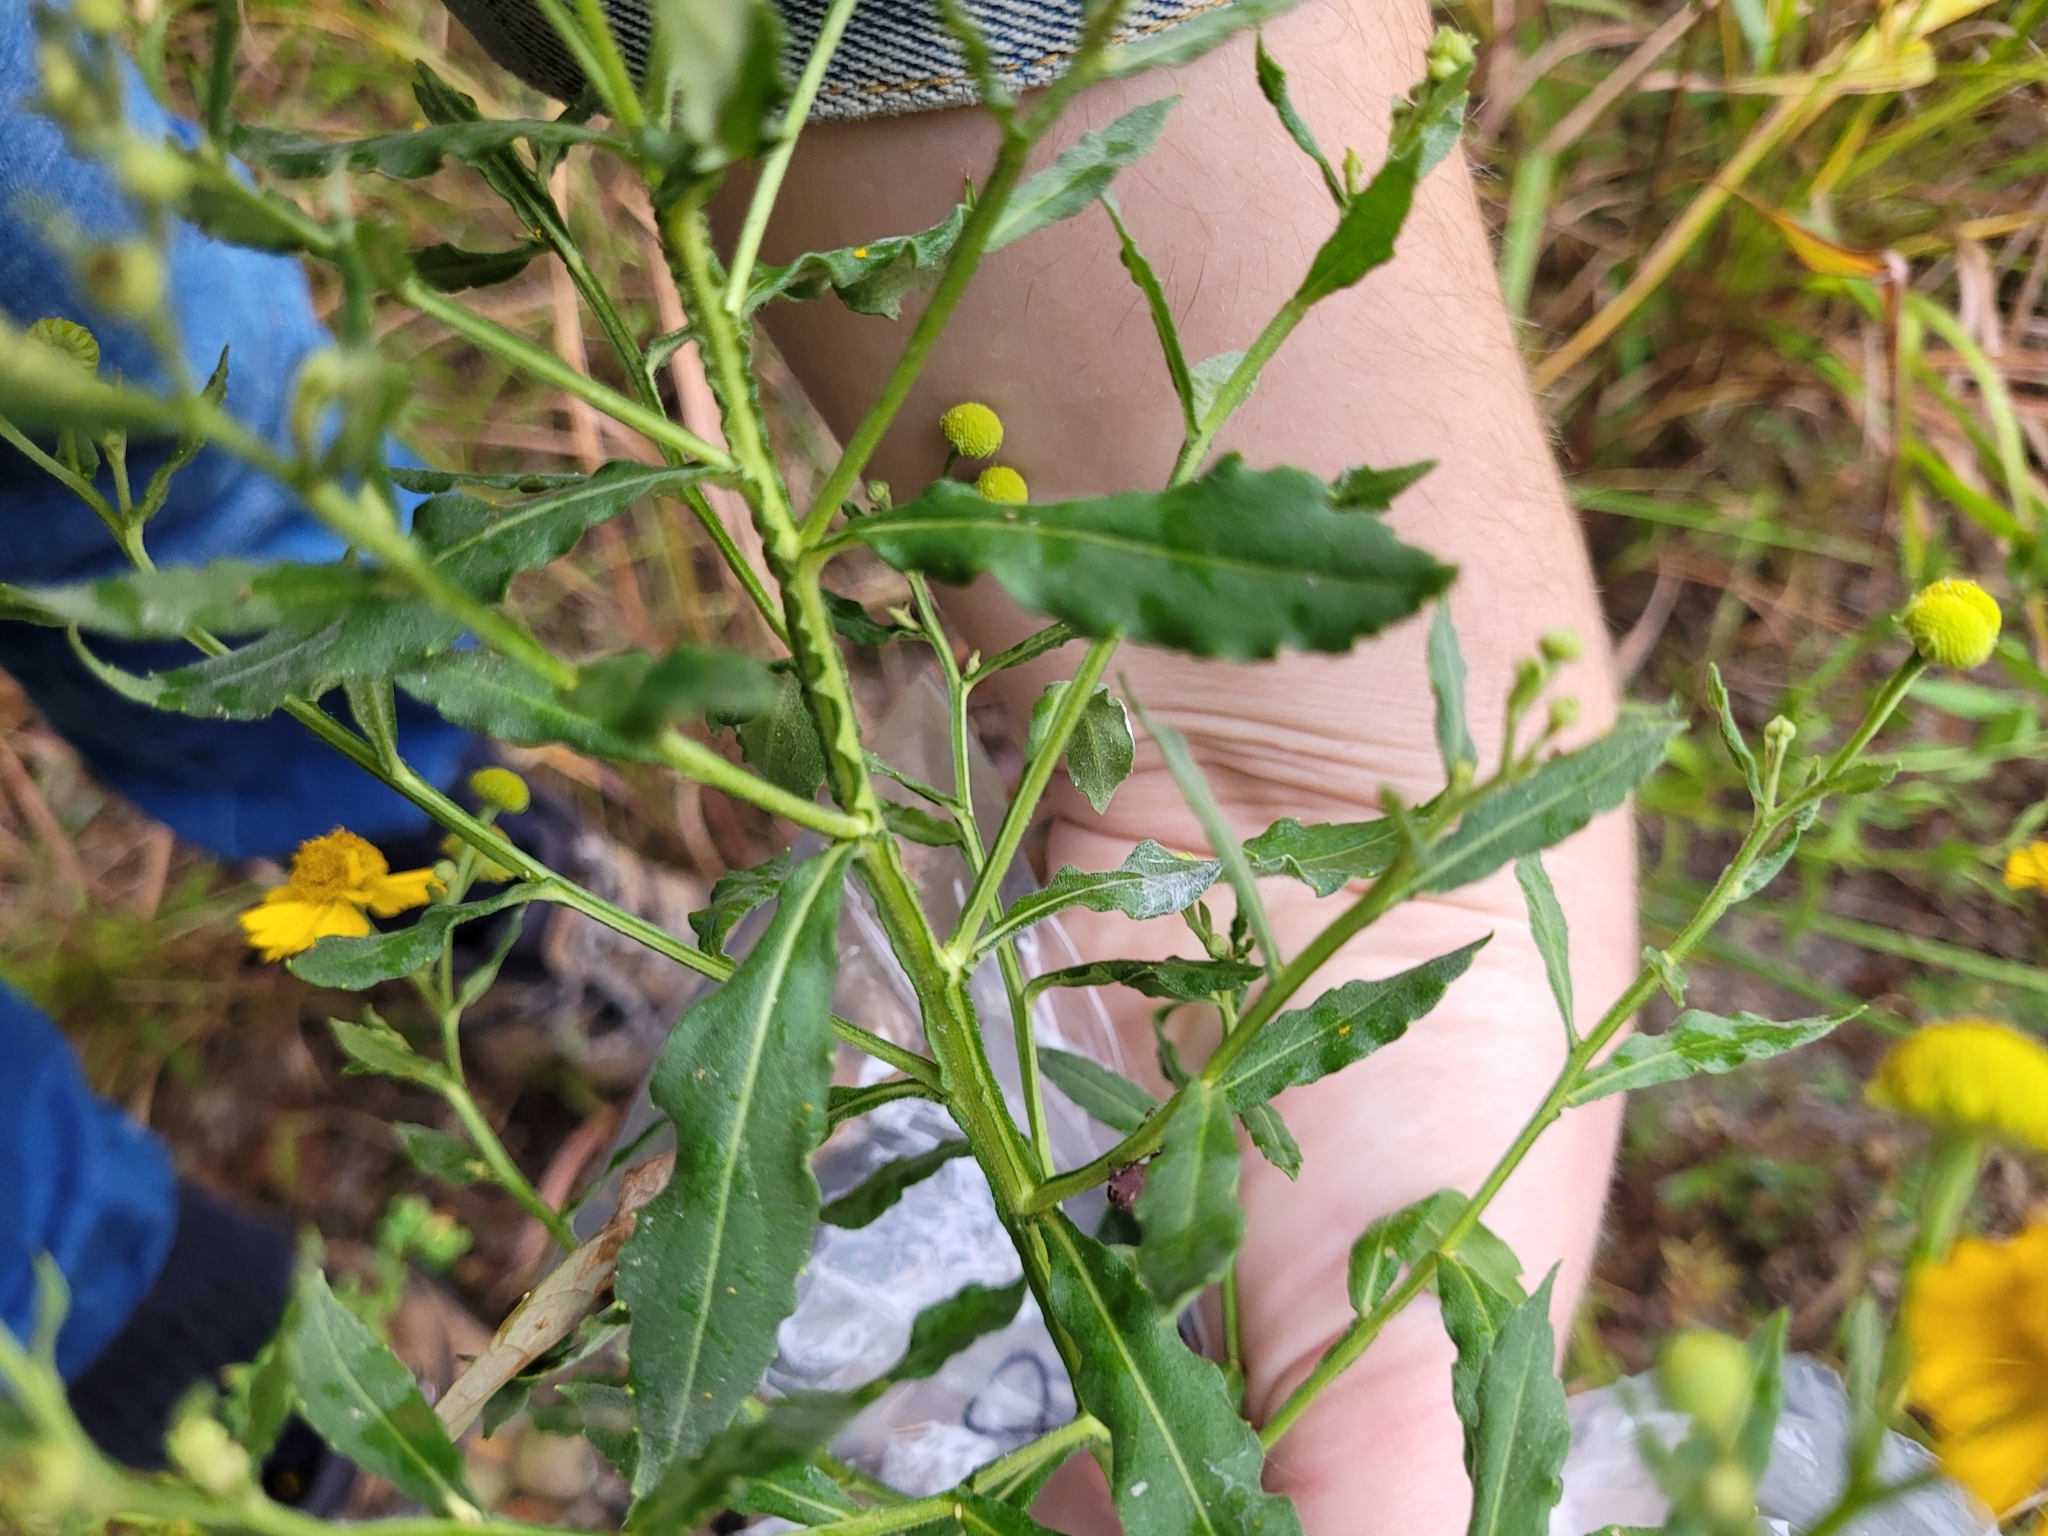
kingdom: Plantae
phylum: Tracheophyta
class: Magnoliopsida
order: Asterales
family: Asteraceae
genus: Helenium
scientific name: Helenium autumnale
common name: Sneezeweed
